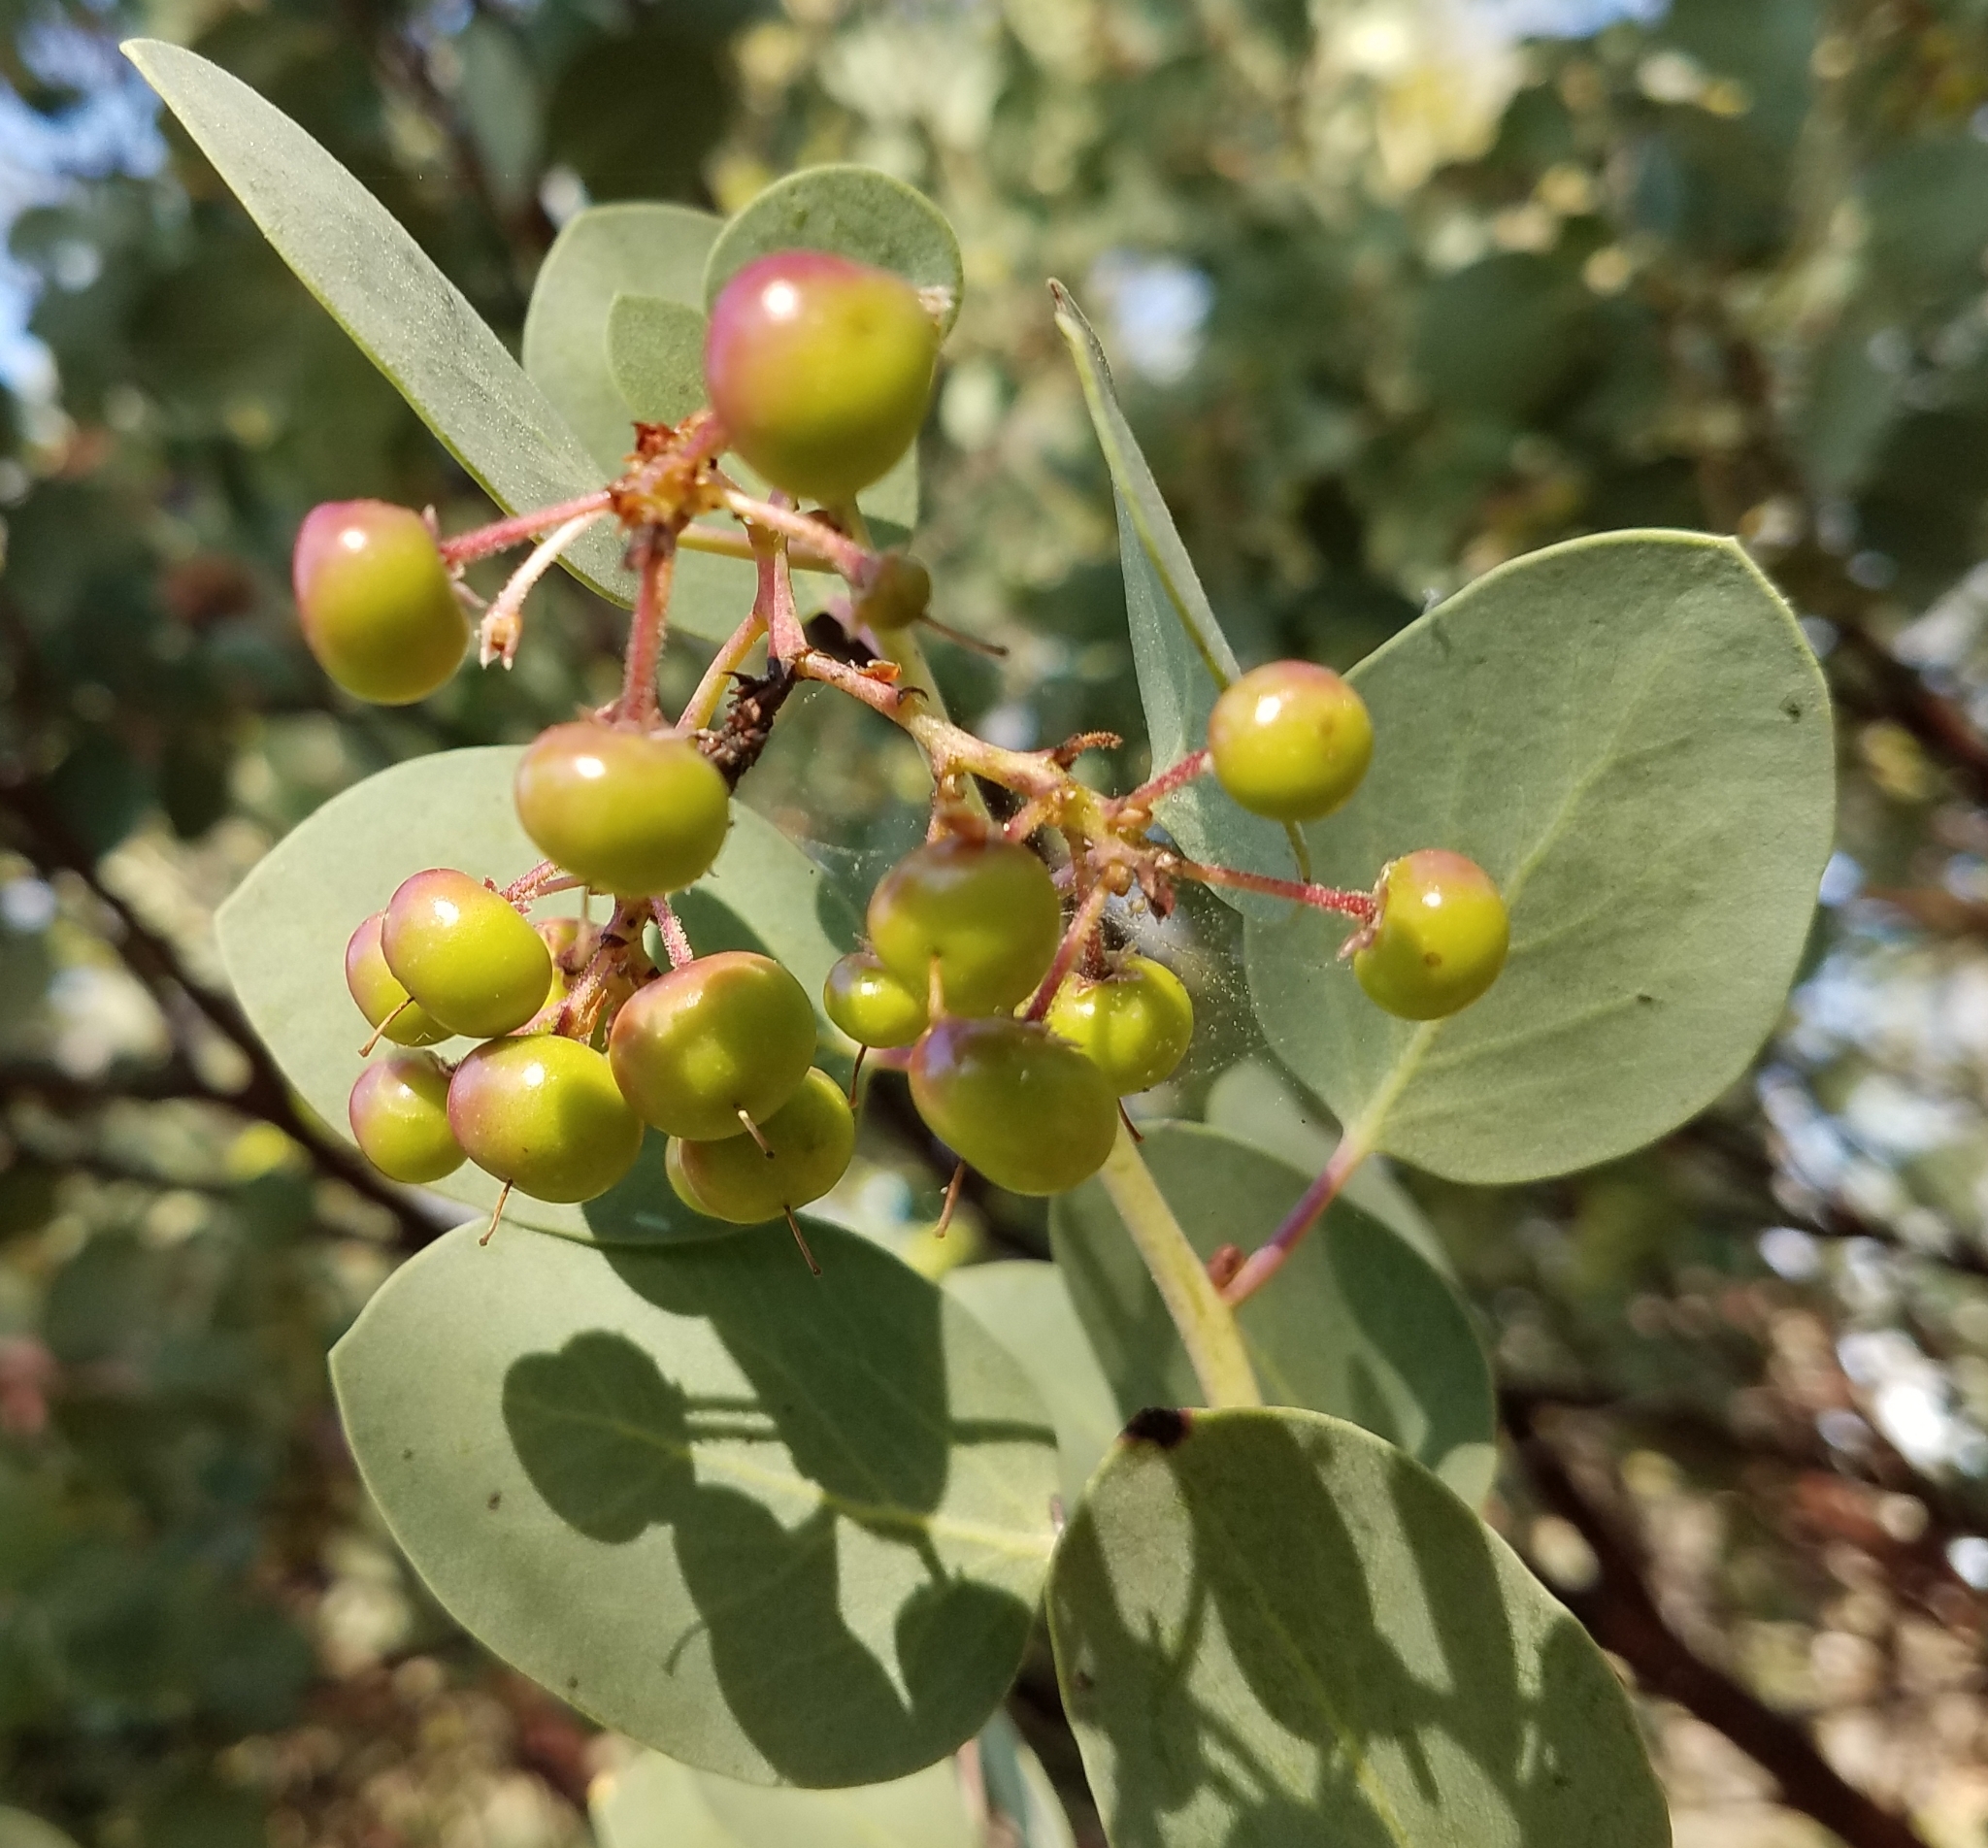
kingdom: Plantae
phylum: Tracheophyta
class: Magnoliopsida
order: Ericales
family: Ericaceae
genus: Arctostaphylos
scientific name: Arctostaphylos viscida
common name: White-leaf manzanita
